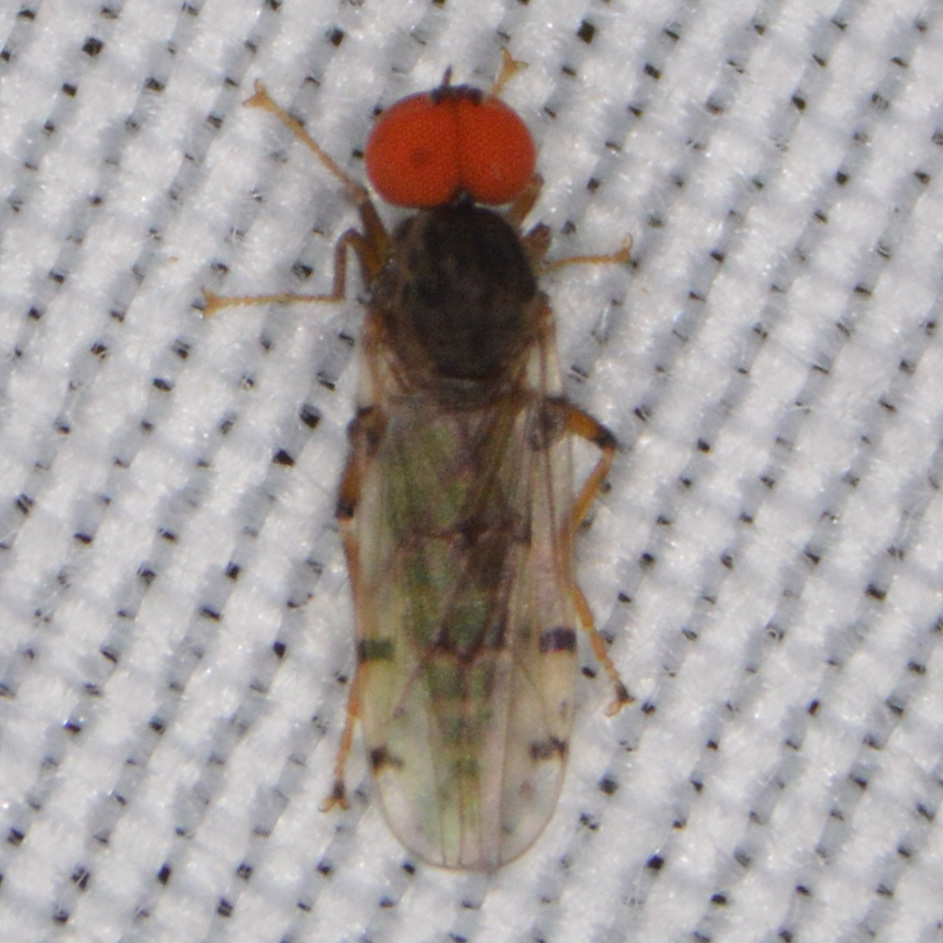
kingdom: Animalia
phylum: Arthropoda
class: Insecta
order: Diptera
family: Hybotidae
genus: Syneches
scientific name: Syneches simplex
